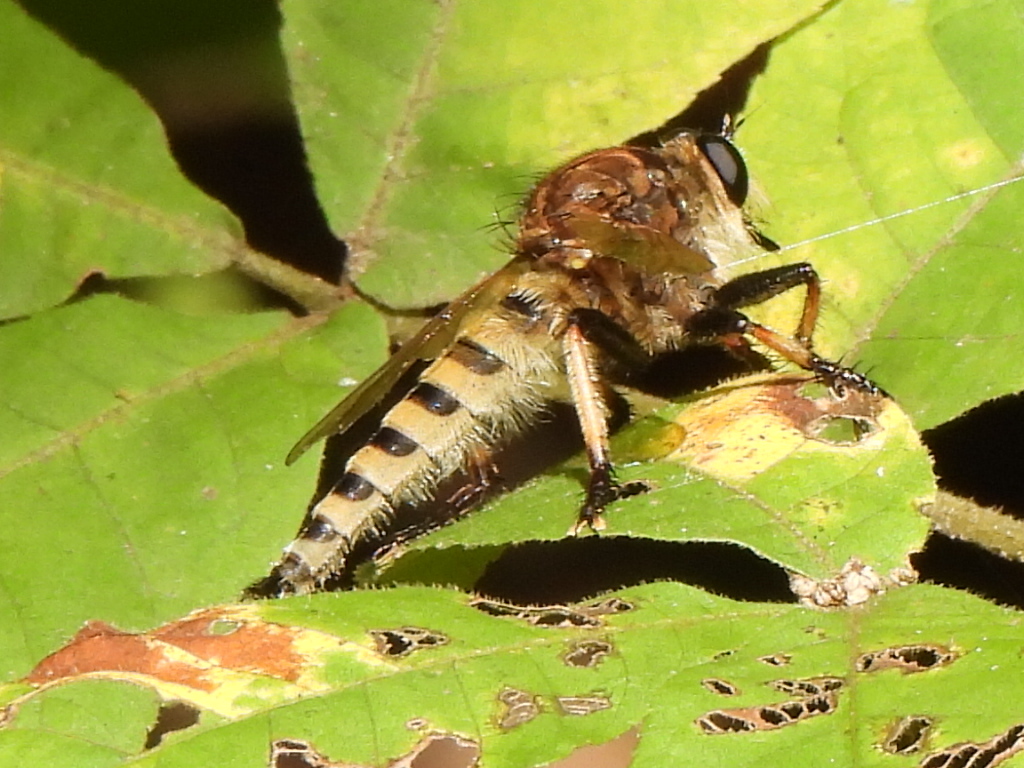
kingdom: Animalia
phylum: Arthropoda
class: Insecta
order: Diptera
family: Asilidae
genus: Promachus
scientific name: Promachus rufipes
